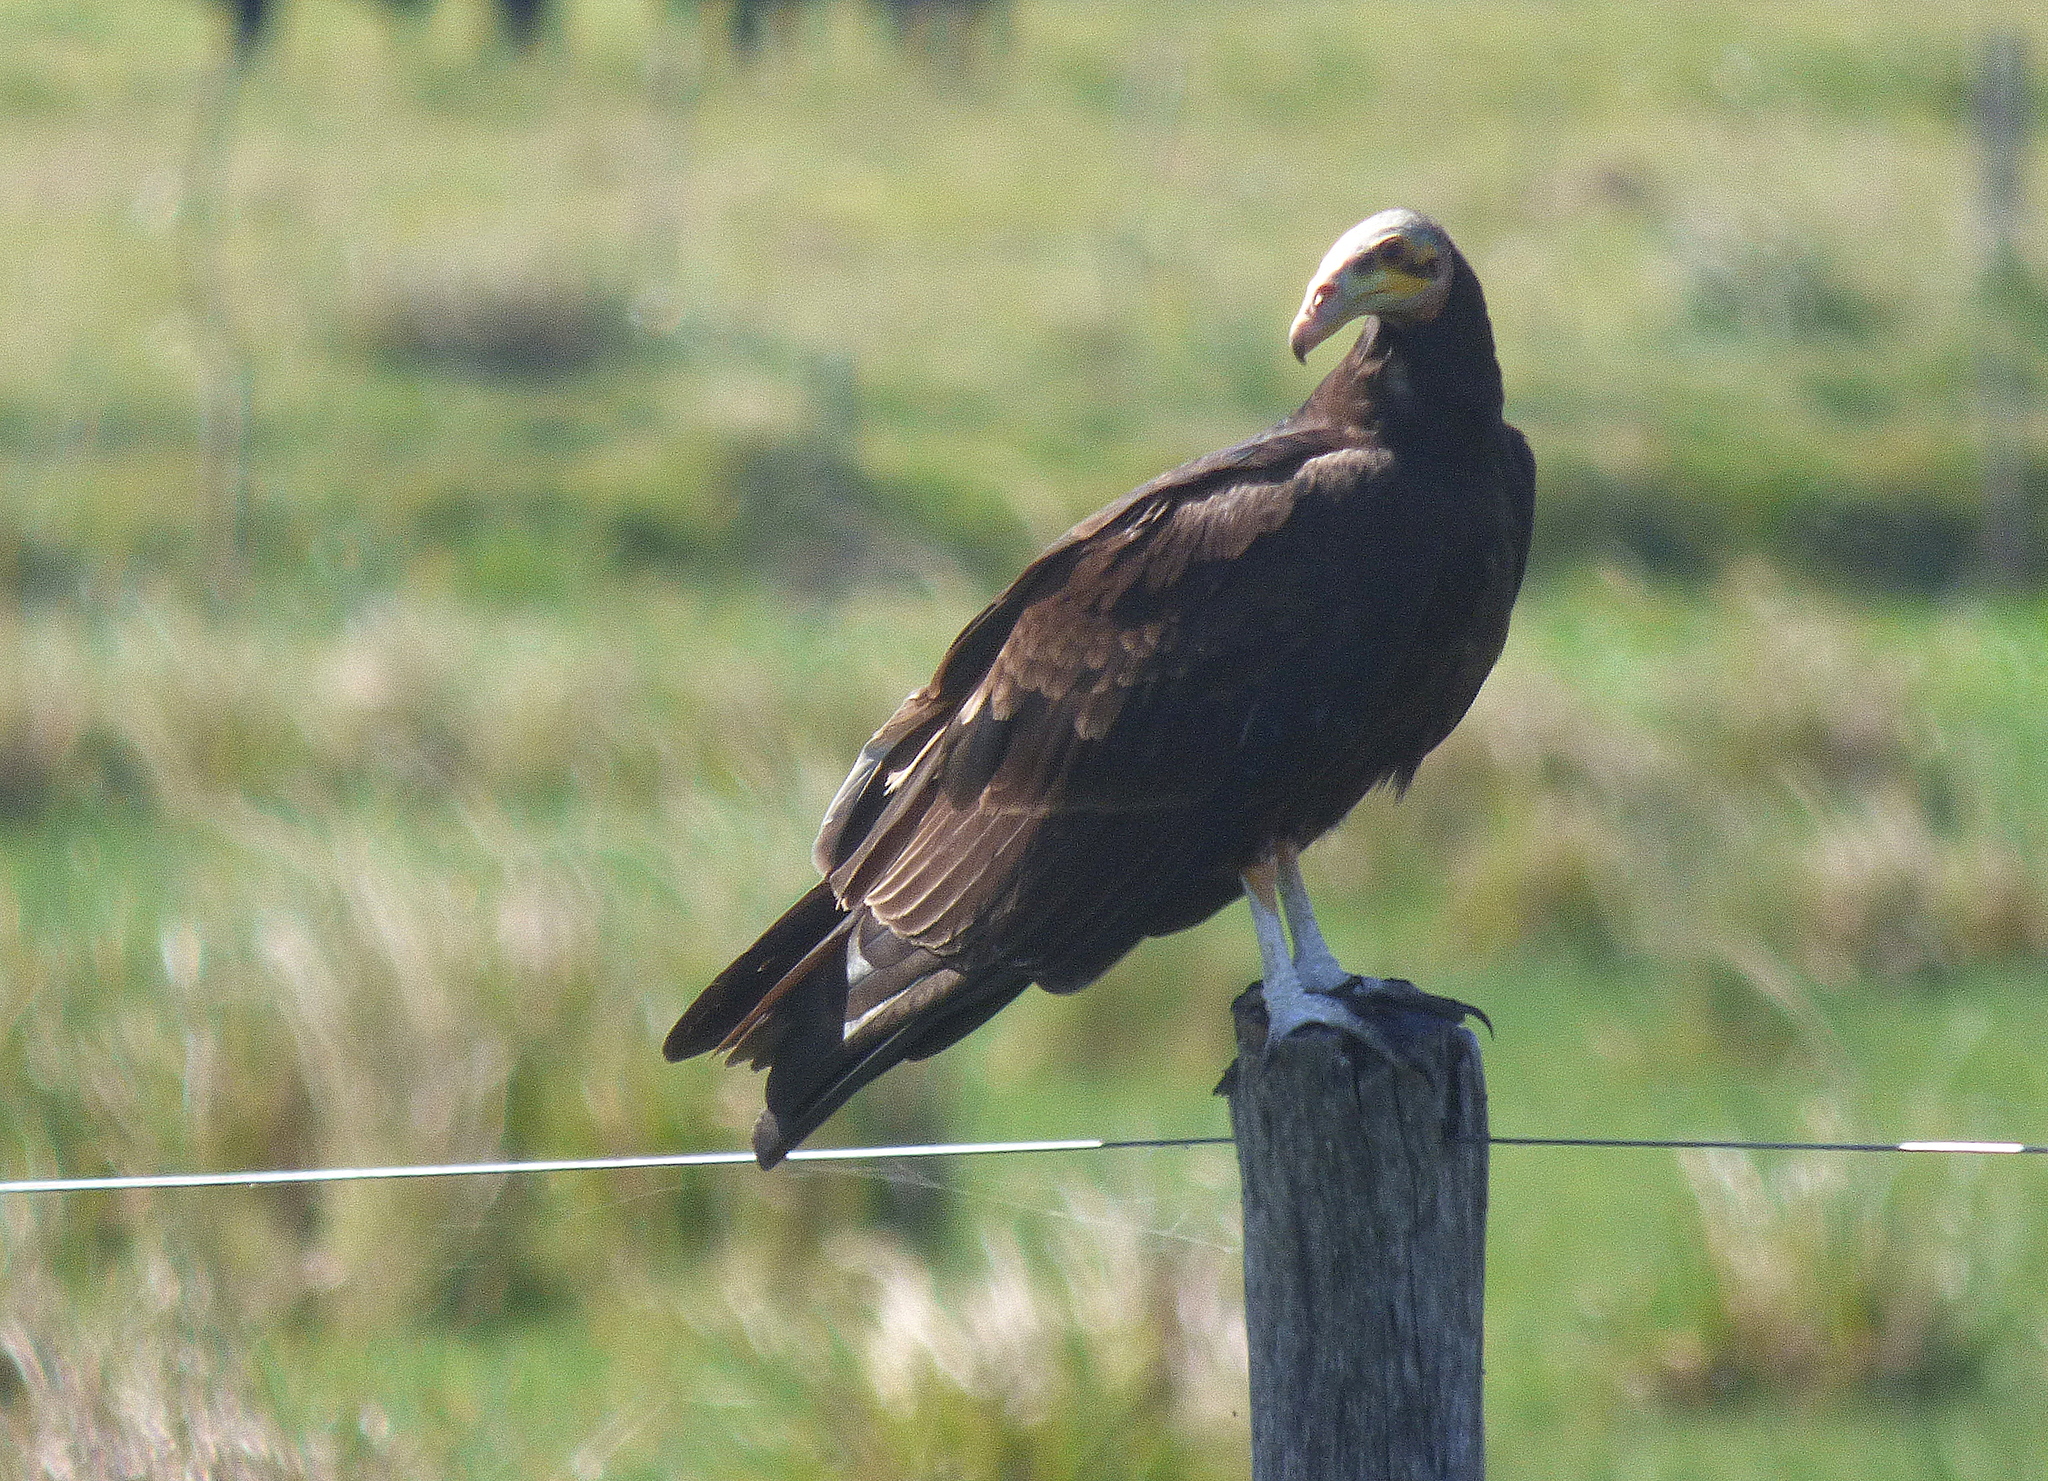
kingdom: Animalia
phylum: Chordata
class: Aves
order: Accipitriformes
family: Cathartidae
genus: Cathartes
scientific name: Cathartes burrovianus
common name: Lesser yellow-headed vulture
